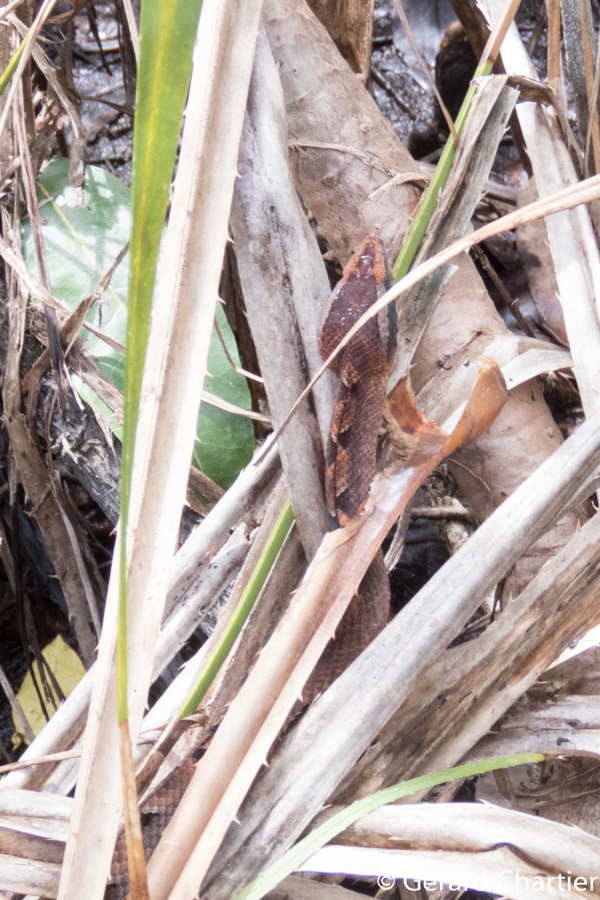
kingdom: Animalia
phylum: Chordata
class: Squamata
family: Viperidae
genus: Calloselasma
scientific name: Calloselasma rhodostoma
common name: Malayan pit viper
